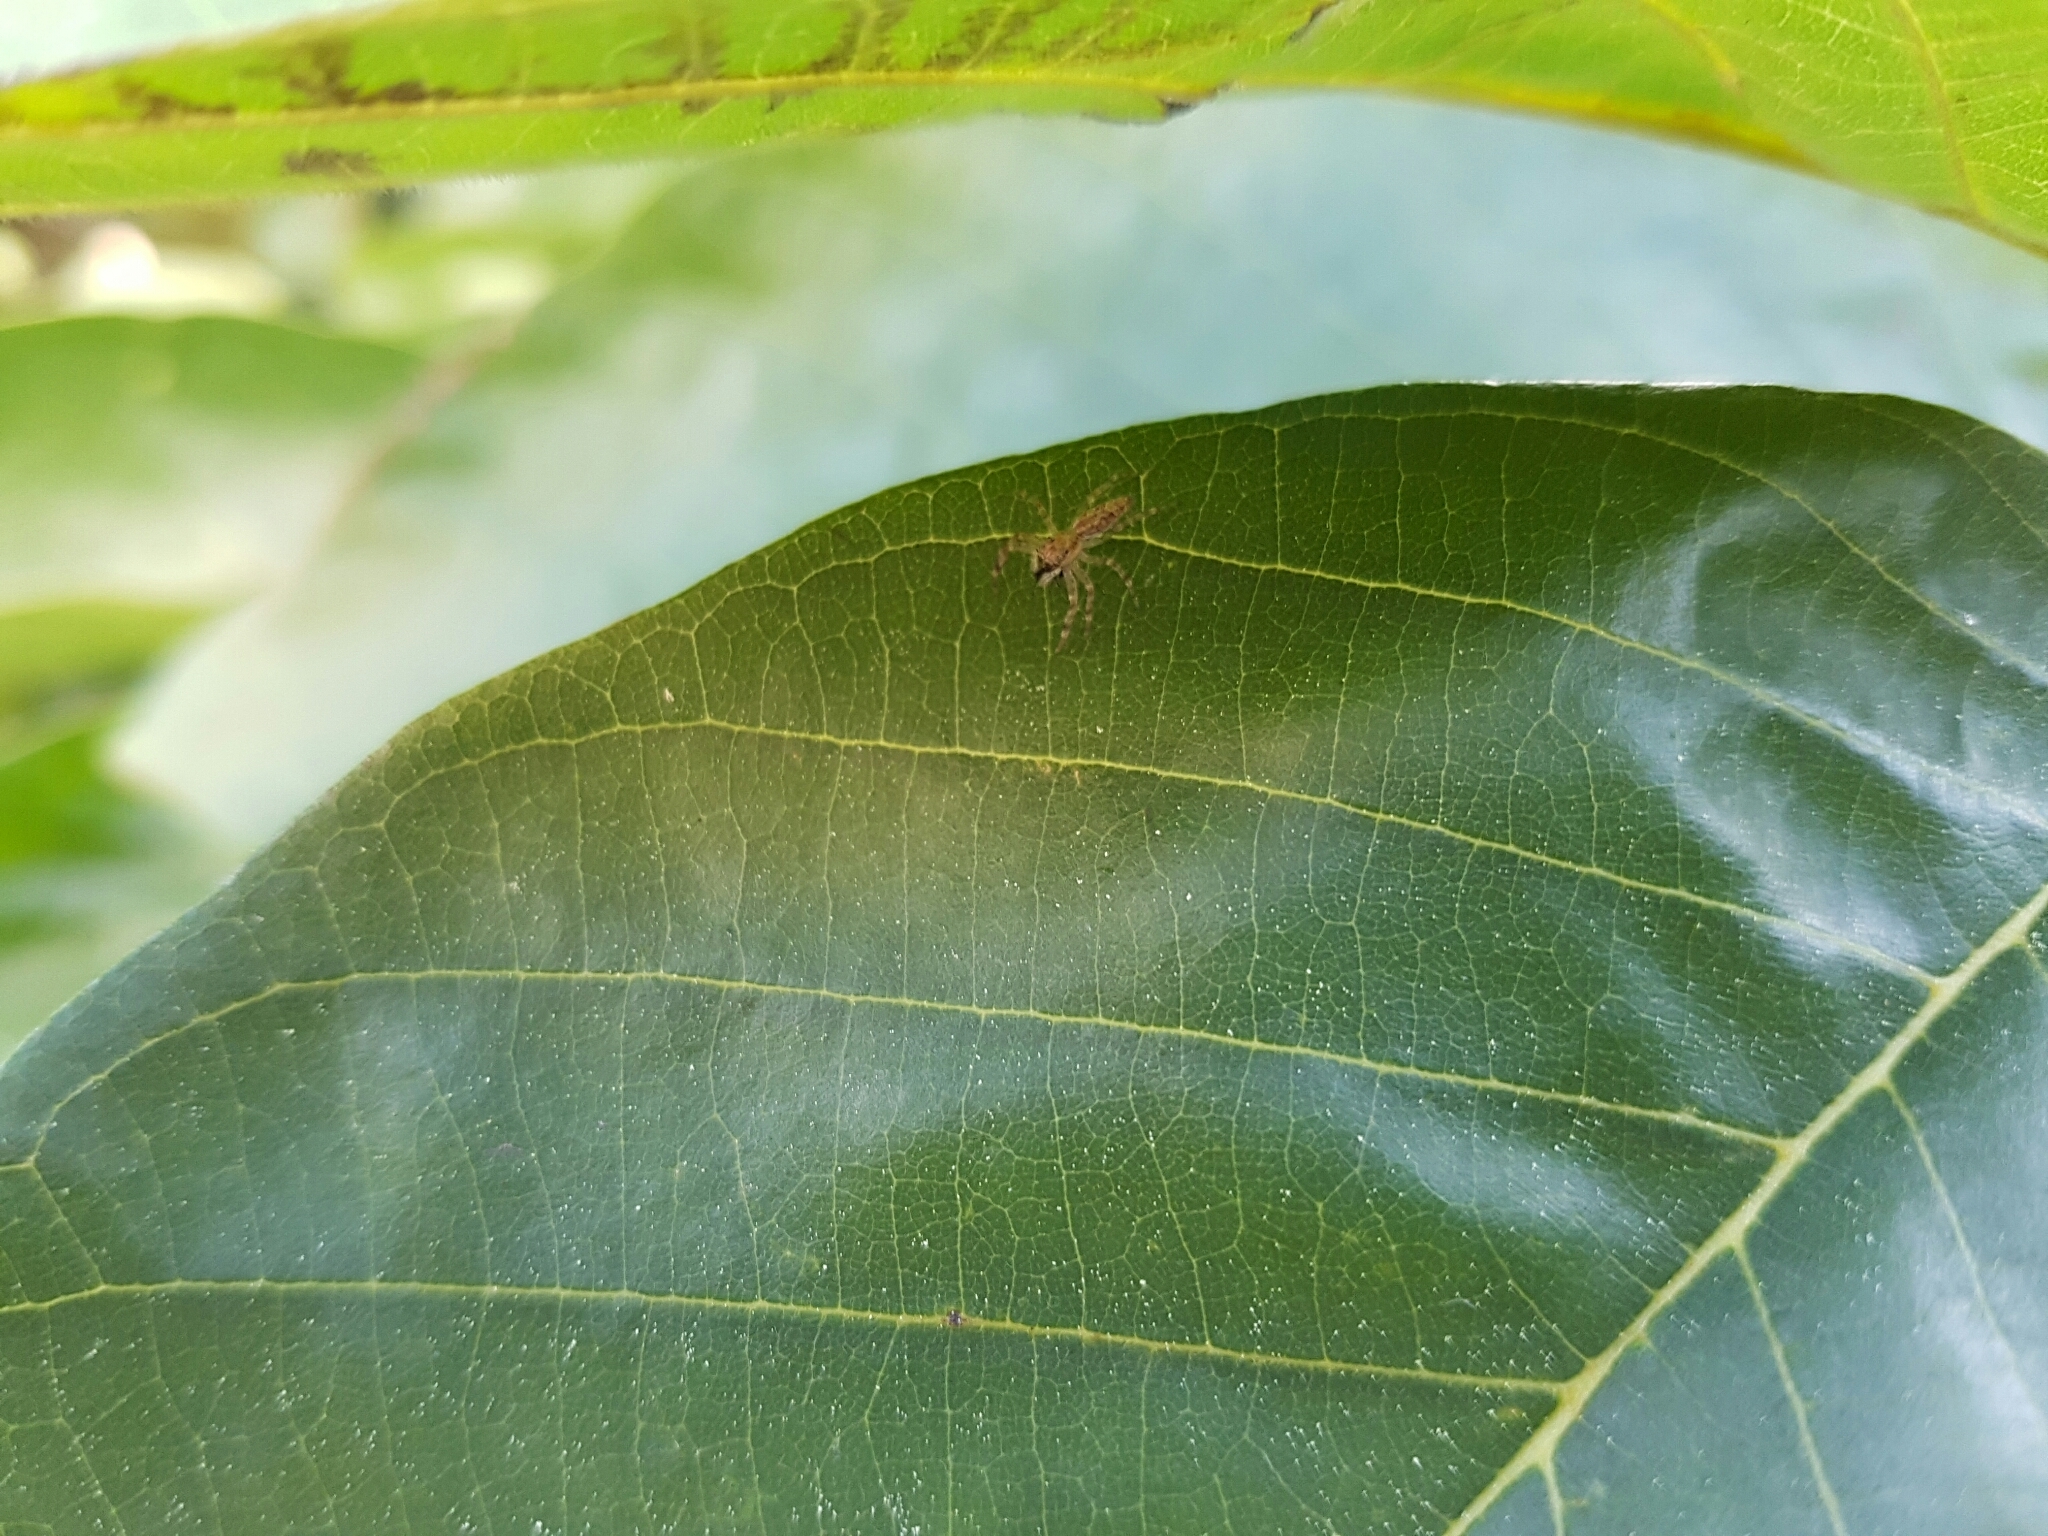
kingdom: Animalia
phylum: Arthropoda
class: Arachnida
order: Araneae
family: Salticidae
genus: Helpis
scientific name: Helpis minitabunda
